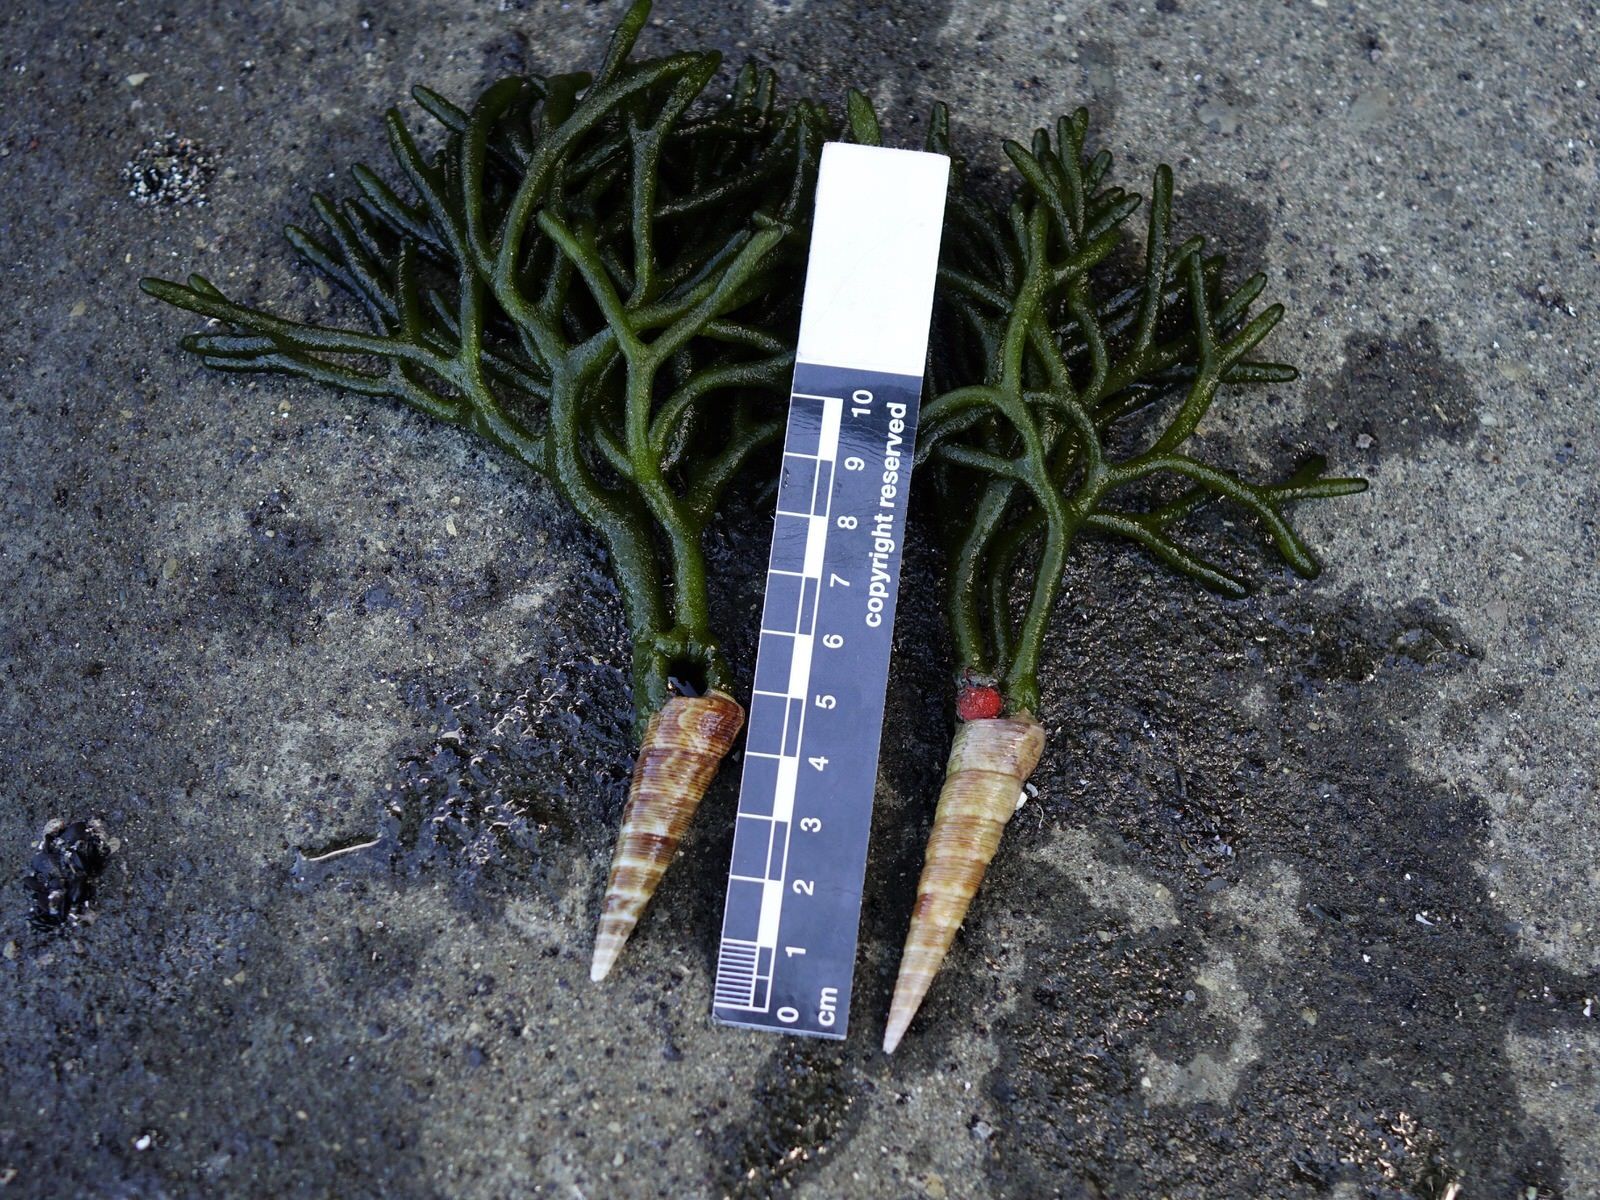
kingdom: Animalia
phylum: Mollusca
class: Gastropoda
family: Turritellidae
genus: Maoricolpus
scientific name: Maoricolpus roseus
